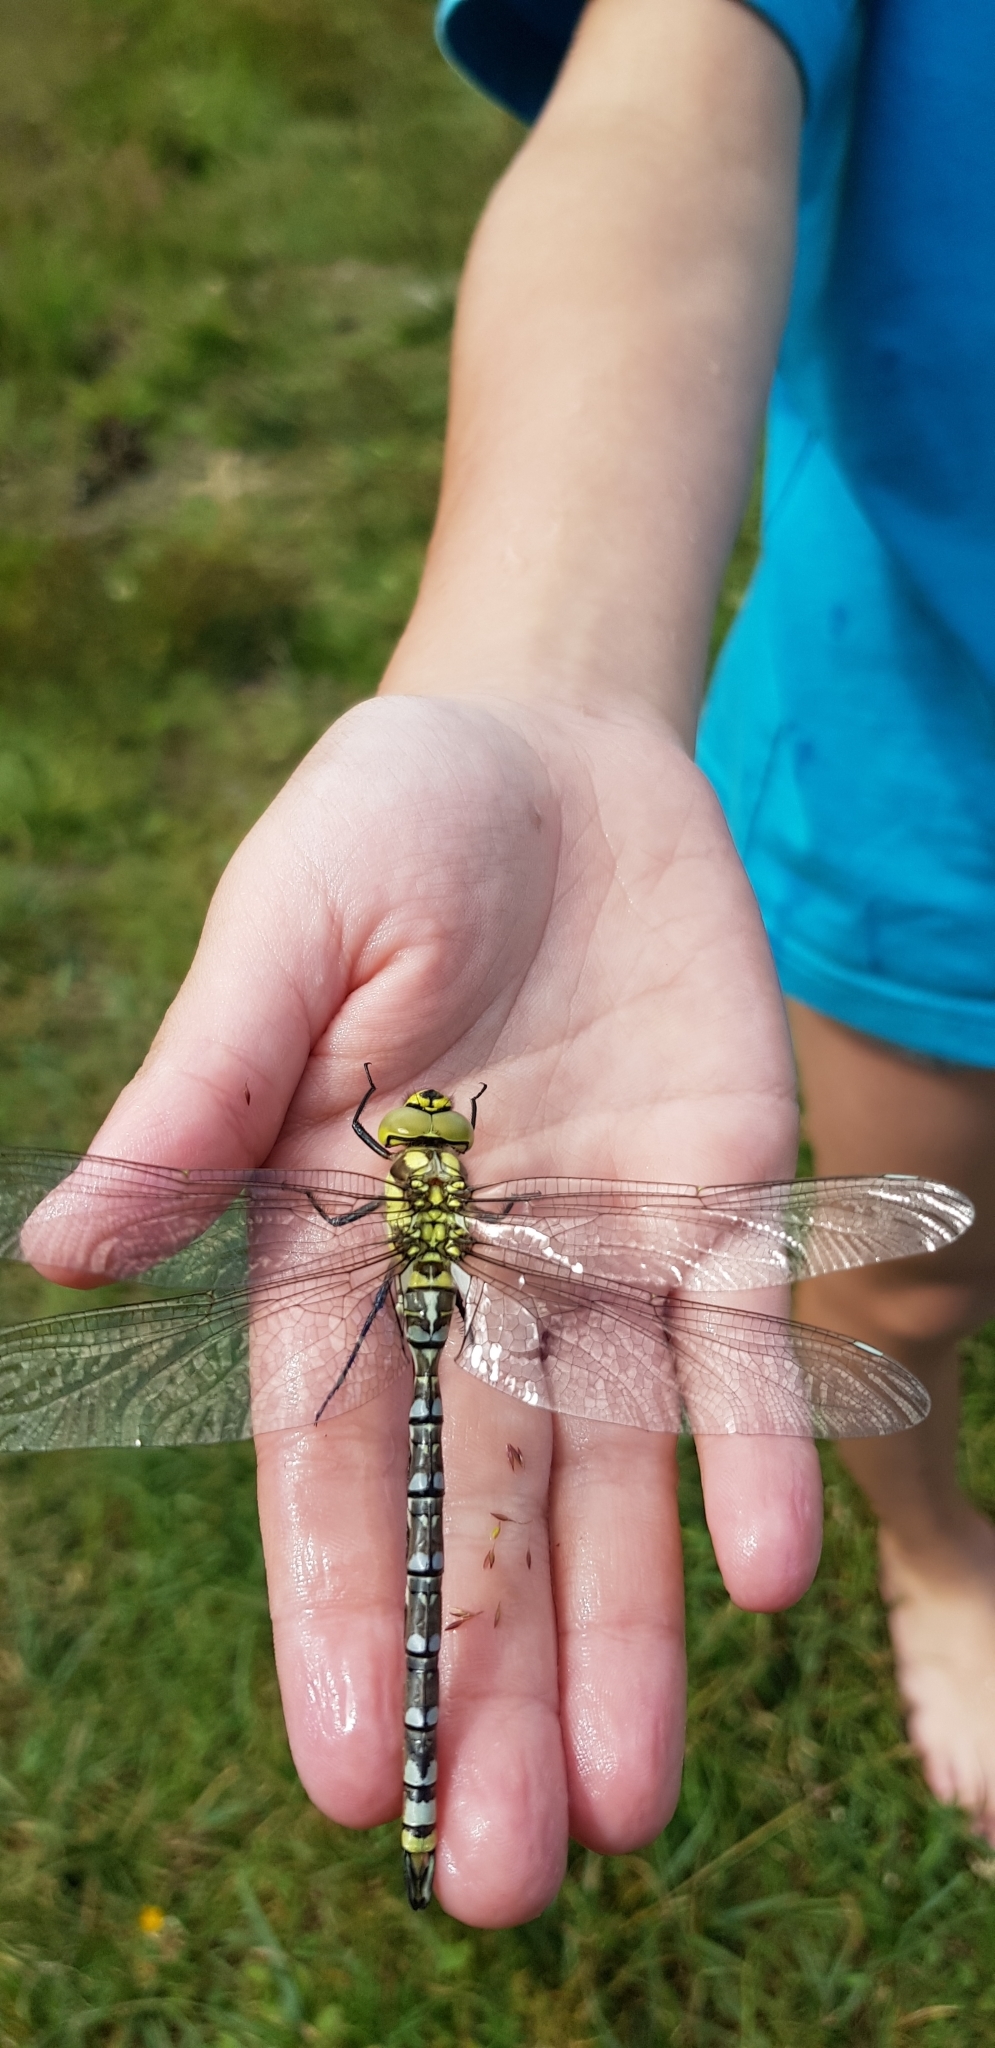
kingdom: Animalia
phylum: Arthropoda
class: Insecta
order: Odonata
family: Aeshnidae
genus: Aeshna
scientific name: Aeshna cyanea
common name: Southern hawker
